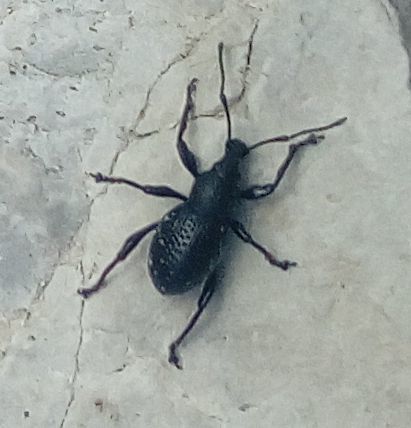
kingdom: Animalia
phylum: Arthropoda
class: Insecta
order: Coleoptera
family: Curculionidae
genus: Otiorhynchus
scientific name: Otiorhynchus gemmatus
